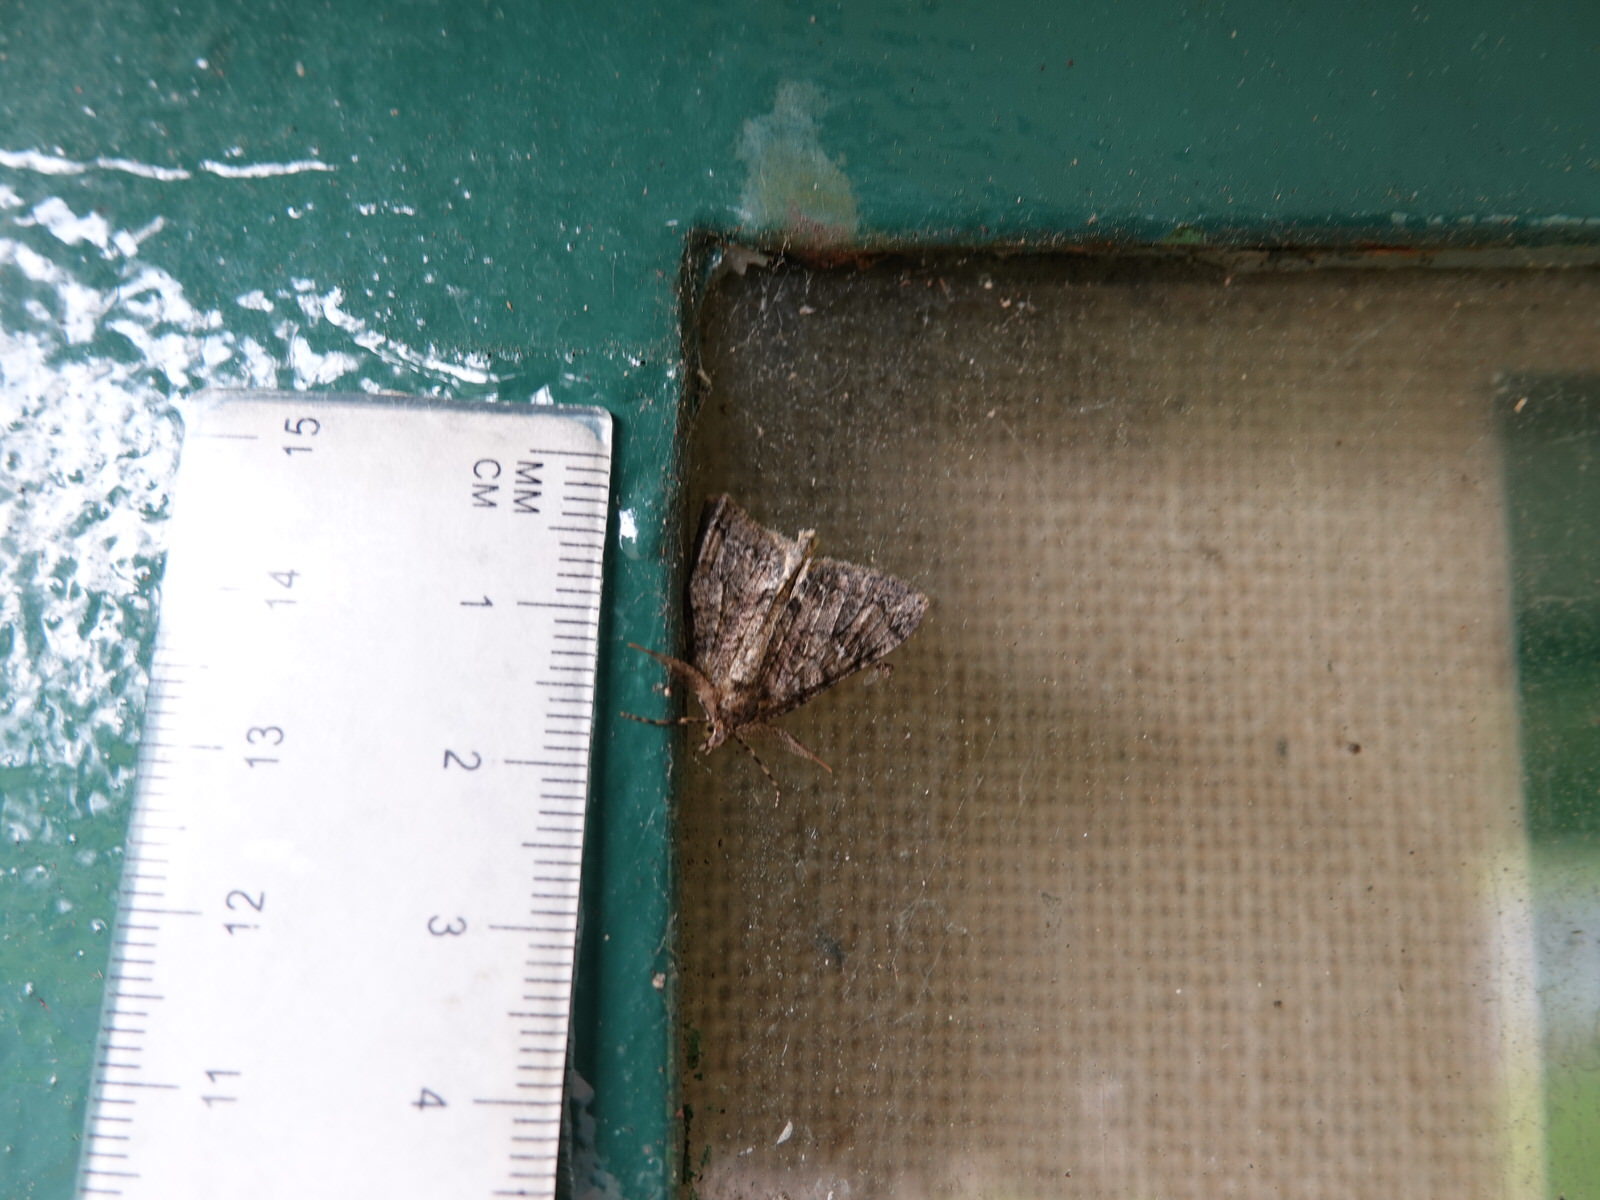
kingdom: Animalia
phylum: Arthropoda
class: Insecta
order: Lepidoptera
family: Geometridae
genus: Pseudocoremia
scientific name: Pseudocoremia suavis
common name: Common forest looper
